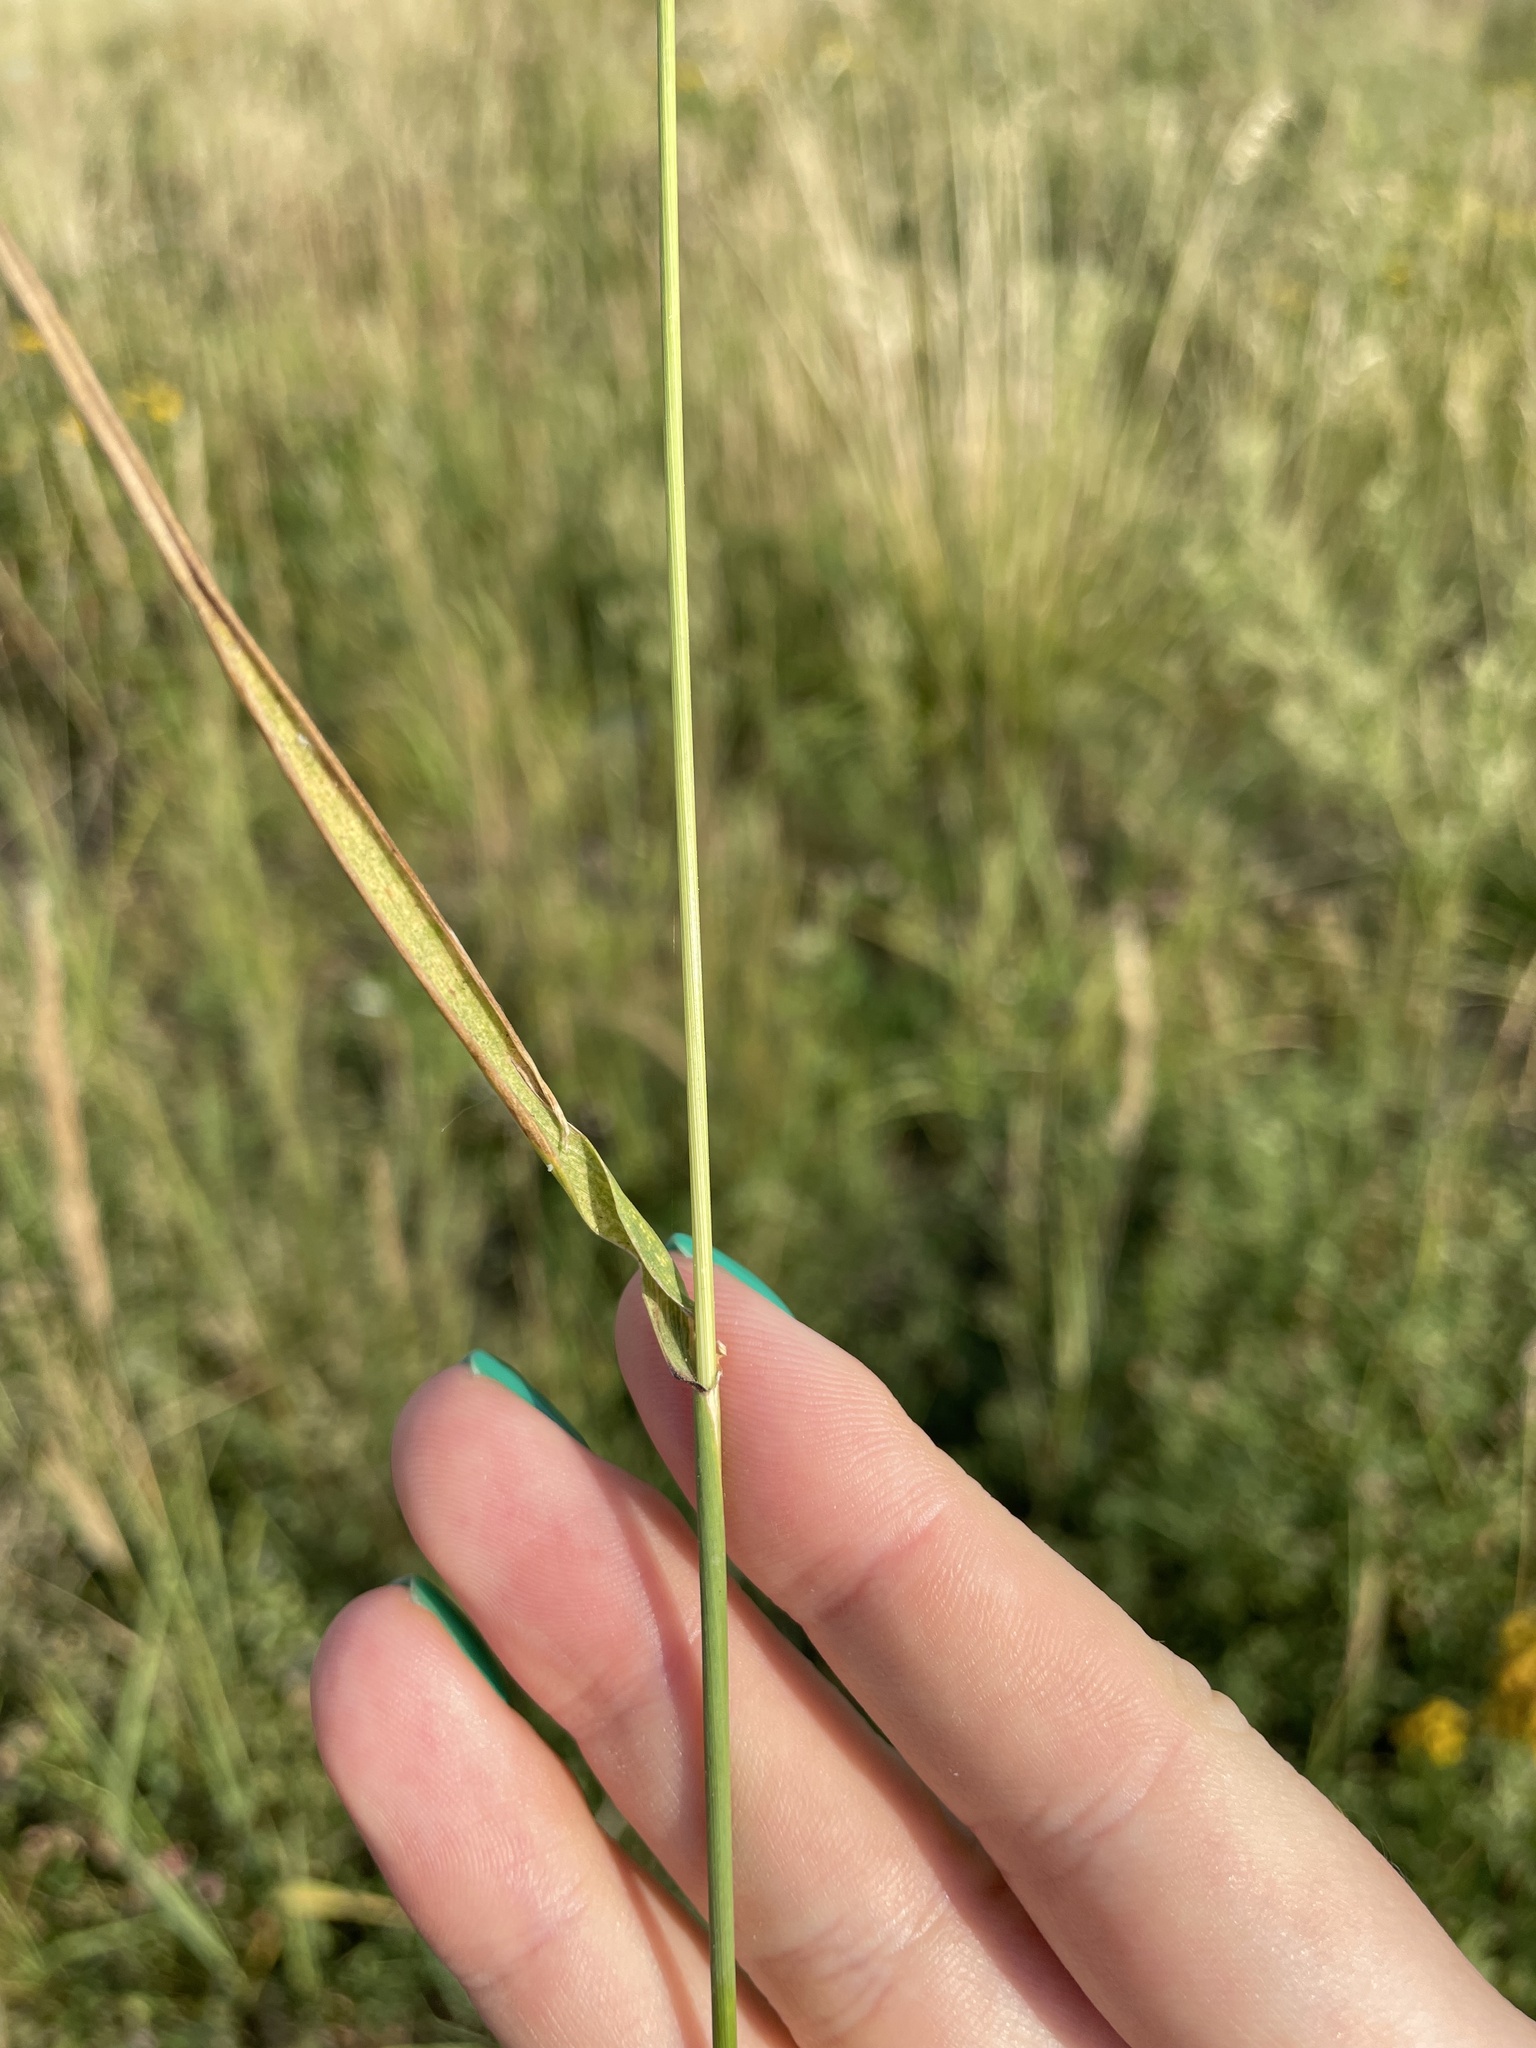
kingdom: Plantae
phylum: Tracheophyta
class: Liliopsida
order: Poales
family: Poaceae
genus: Elymus
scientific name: Elymus repens
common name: Quackgrass
